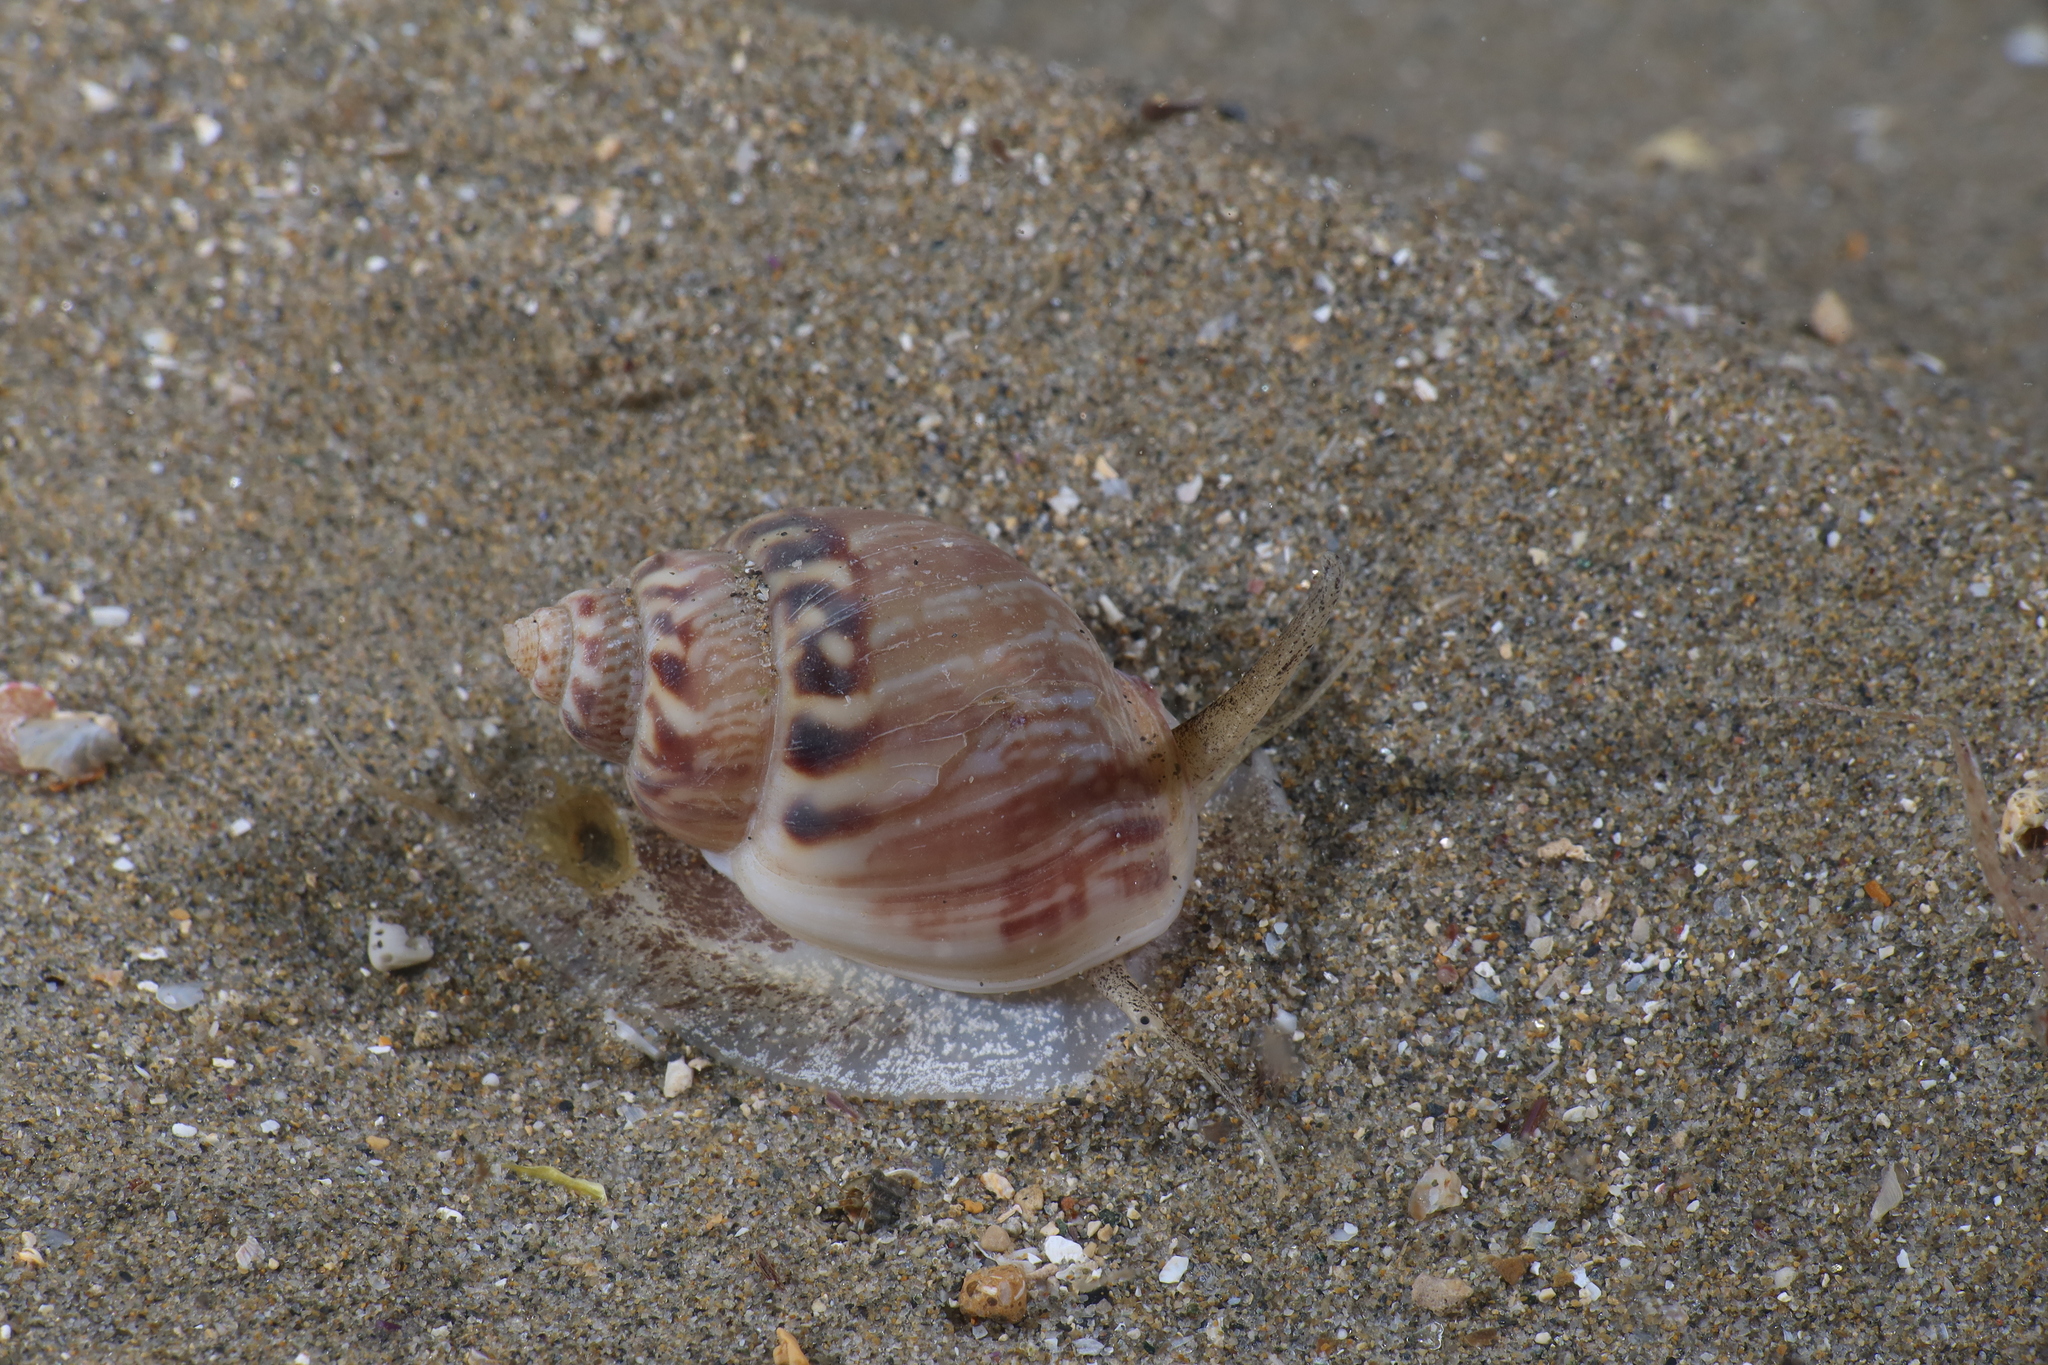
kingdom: Animalia
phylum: Mollusca
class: Gastropoda
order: Neogastropoda
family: Nassariidae
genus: Tritia
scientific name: Tritia mutabilis
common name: Mutable nassa
